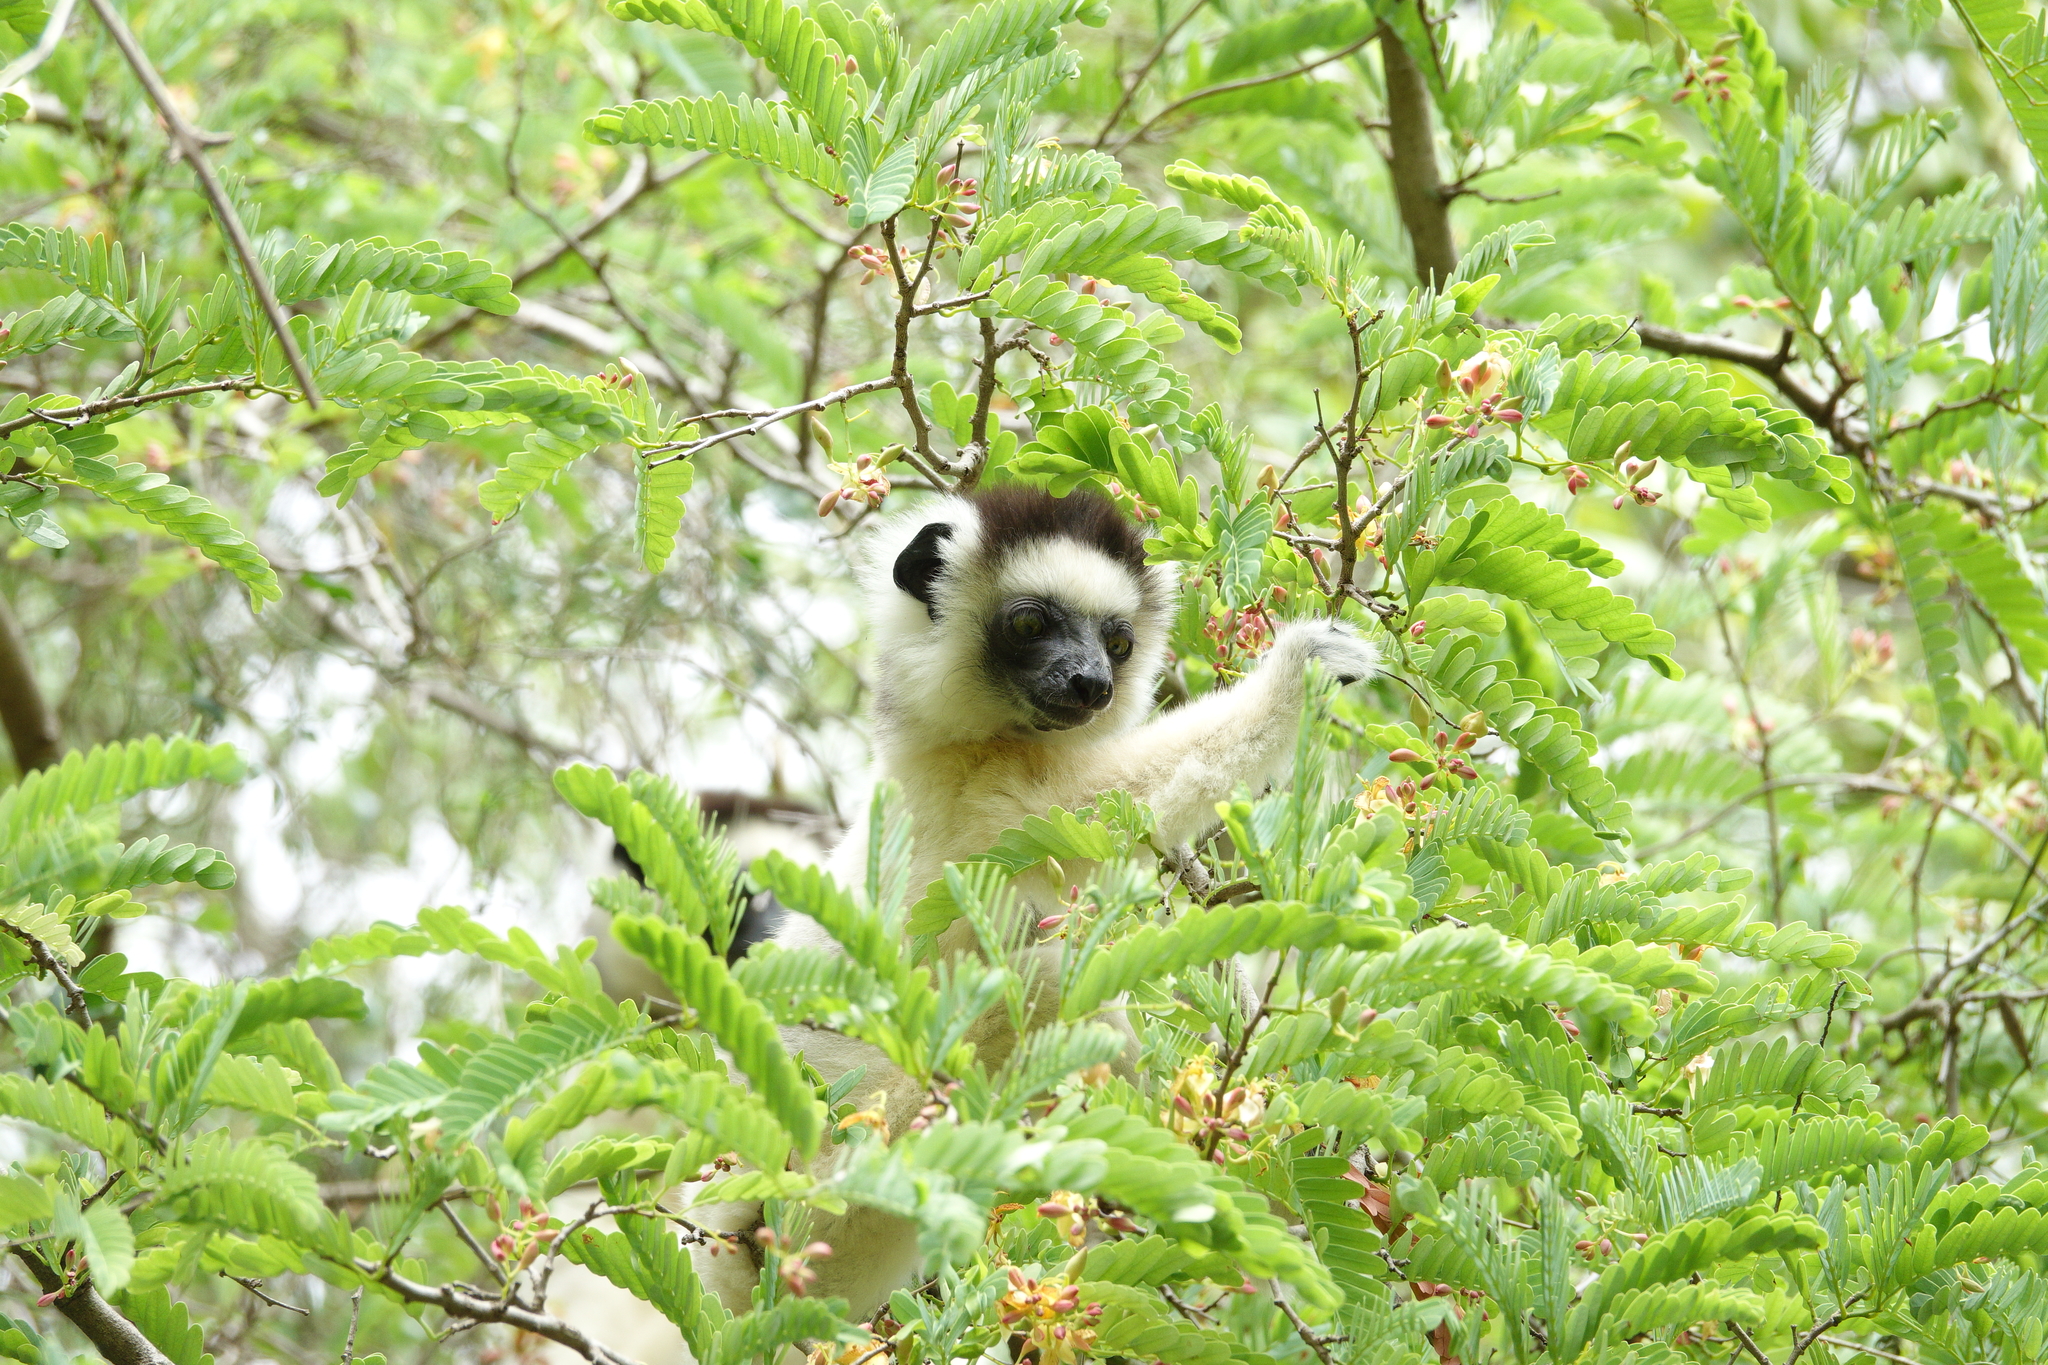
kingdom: Animalia
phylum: Chordata
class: Mammalia
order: Primates
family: Indriidae
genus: Propithecus
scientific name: Propithecus verreauxi
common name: Verreaux's sifaka
